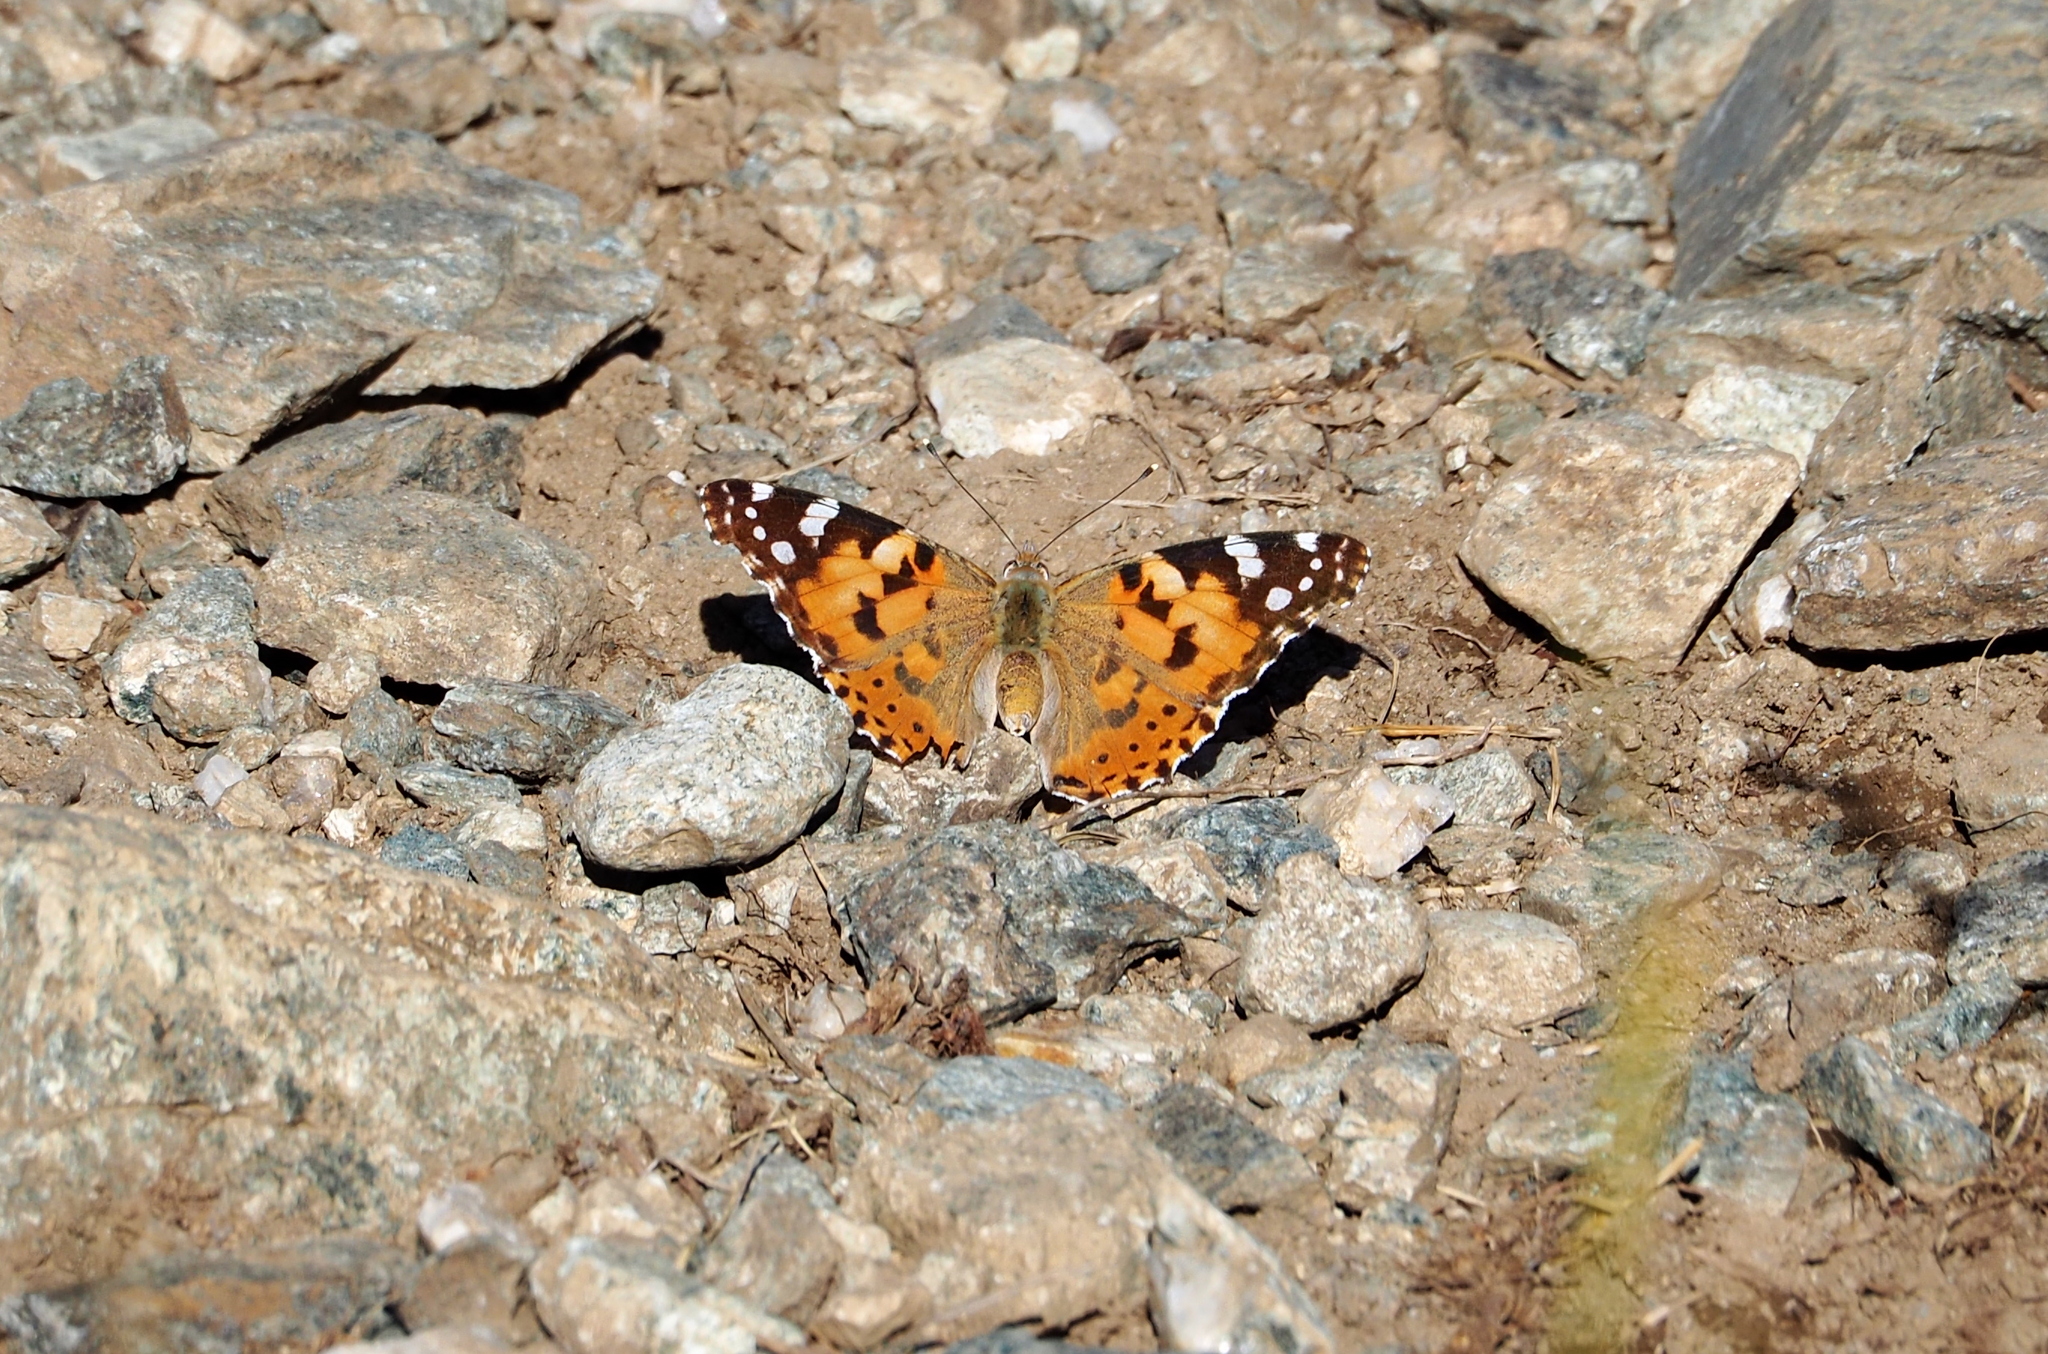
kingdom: Animalia
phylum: Arthropoda
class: Insecta
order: Lepidoptera
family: Nymphalidae
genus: Vanessa
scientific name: Vanessa cardui
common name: Painted lady
